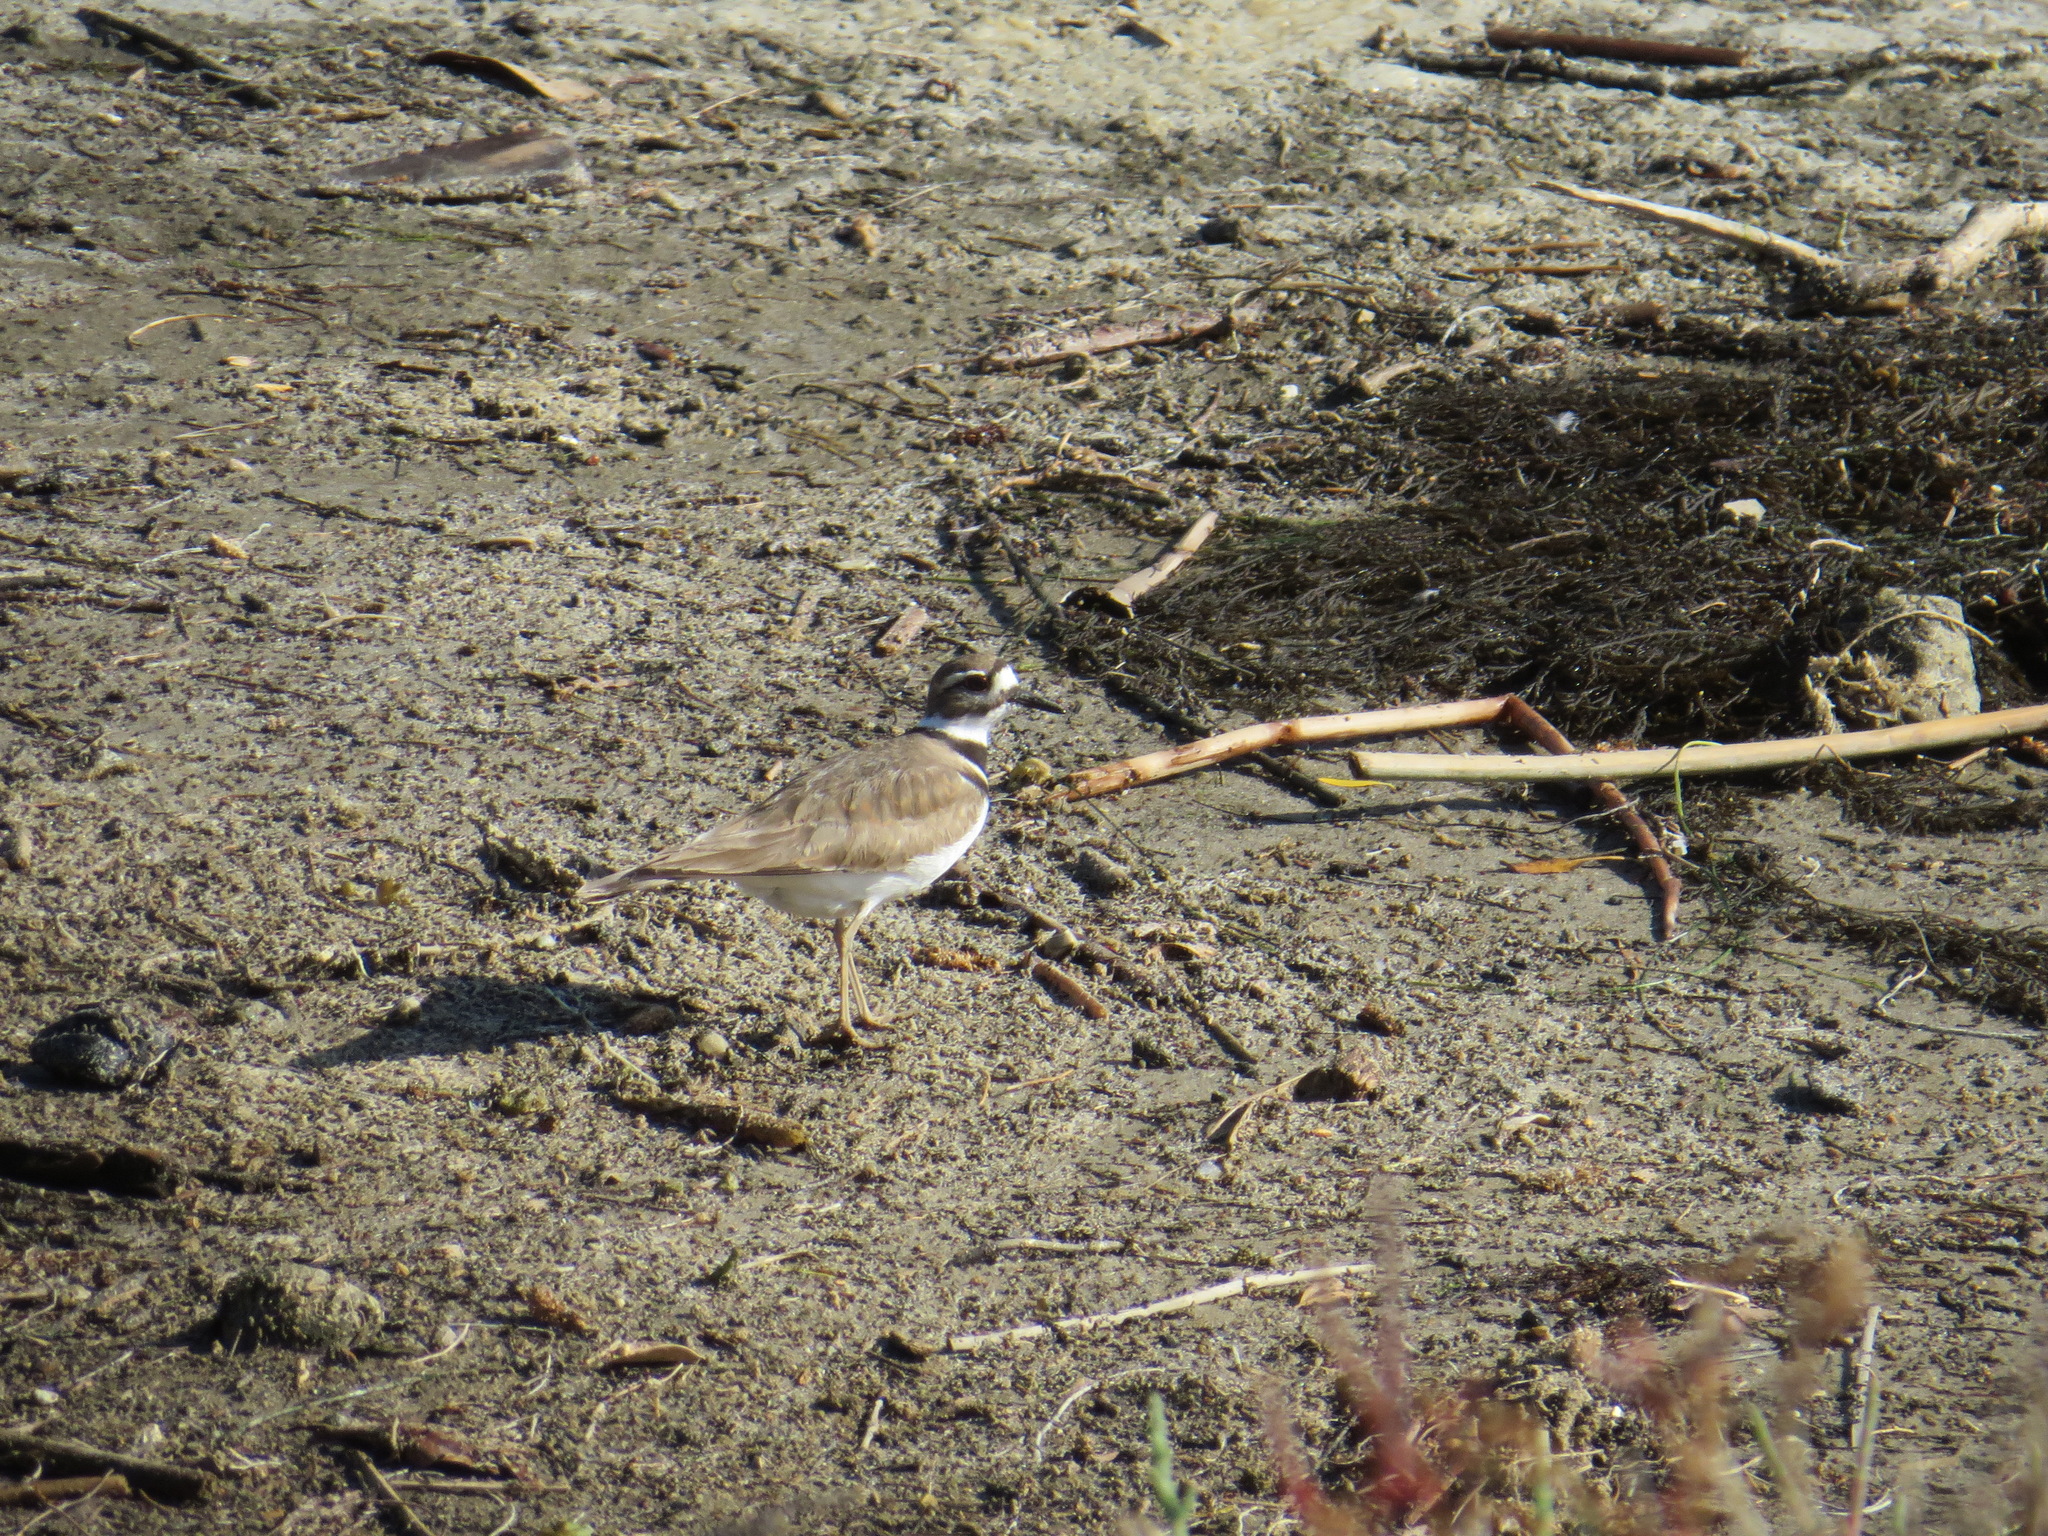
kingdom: Animalia
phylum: Chordata
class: Aves
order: Charadriiformes
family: Charadriidae
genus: Charadrius
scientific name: Charadrius vociferus
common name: Killdeer
